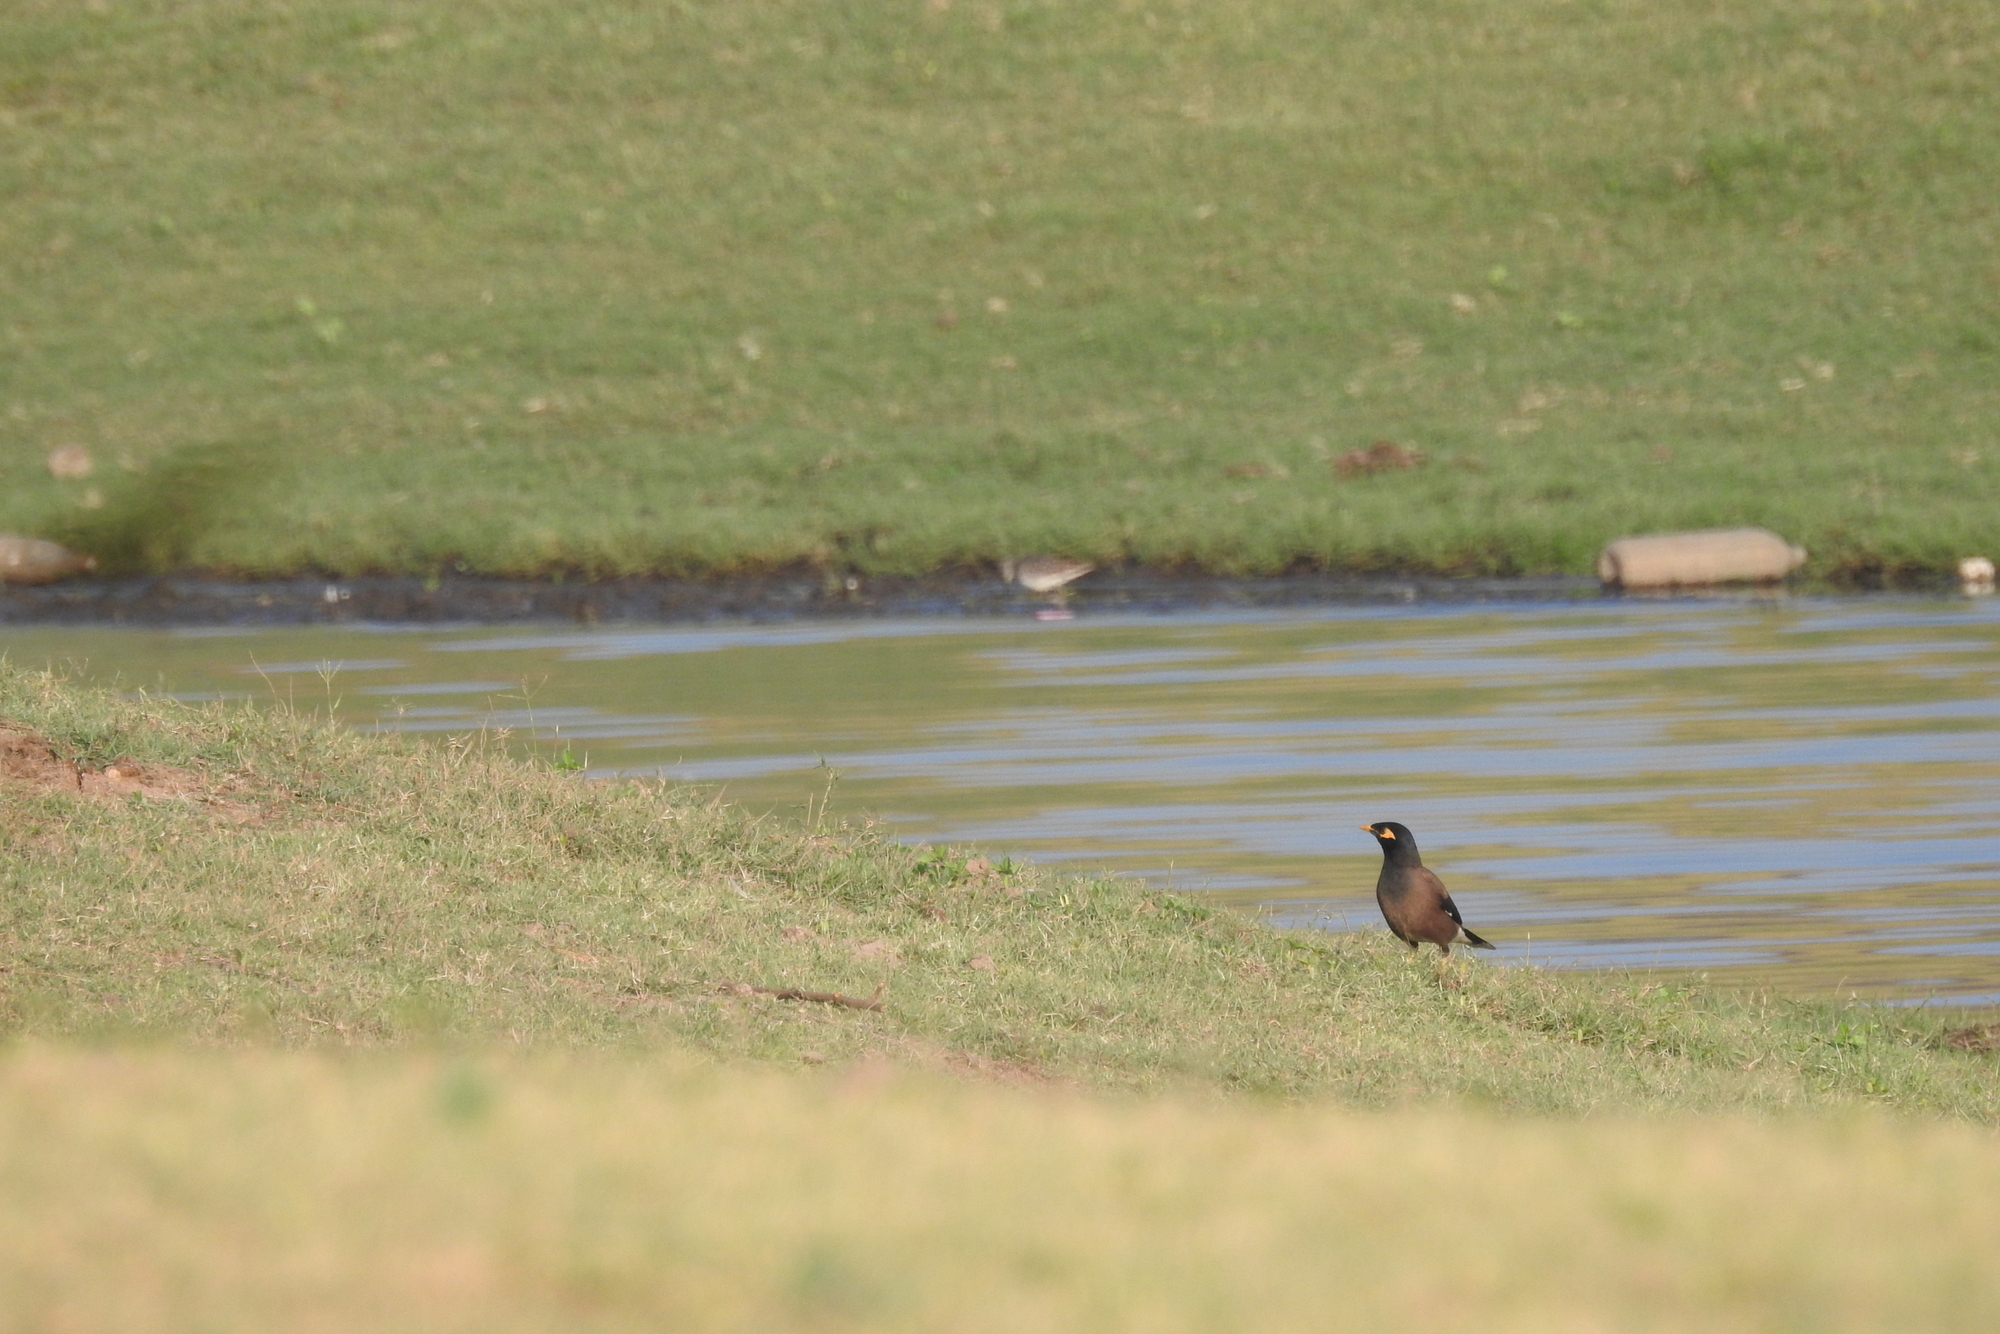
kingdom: Animalia
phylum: Chordata
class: Aves
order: Passeriformes
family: Sturnidae
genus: Acridotheres
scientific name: Acridotheres tristis
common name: Common myna
